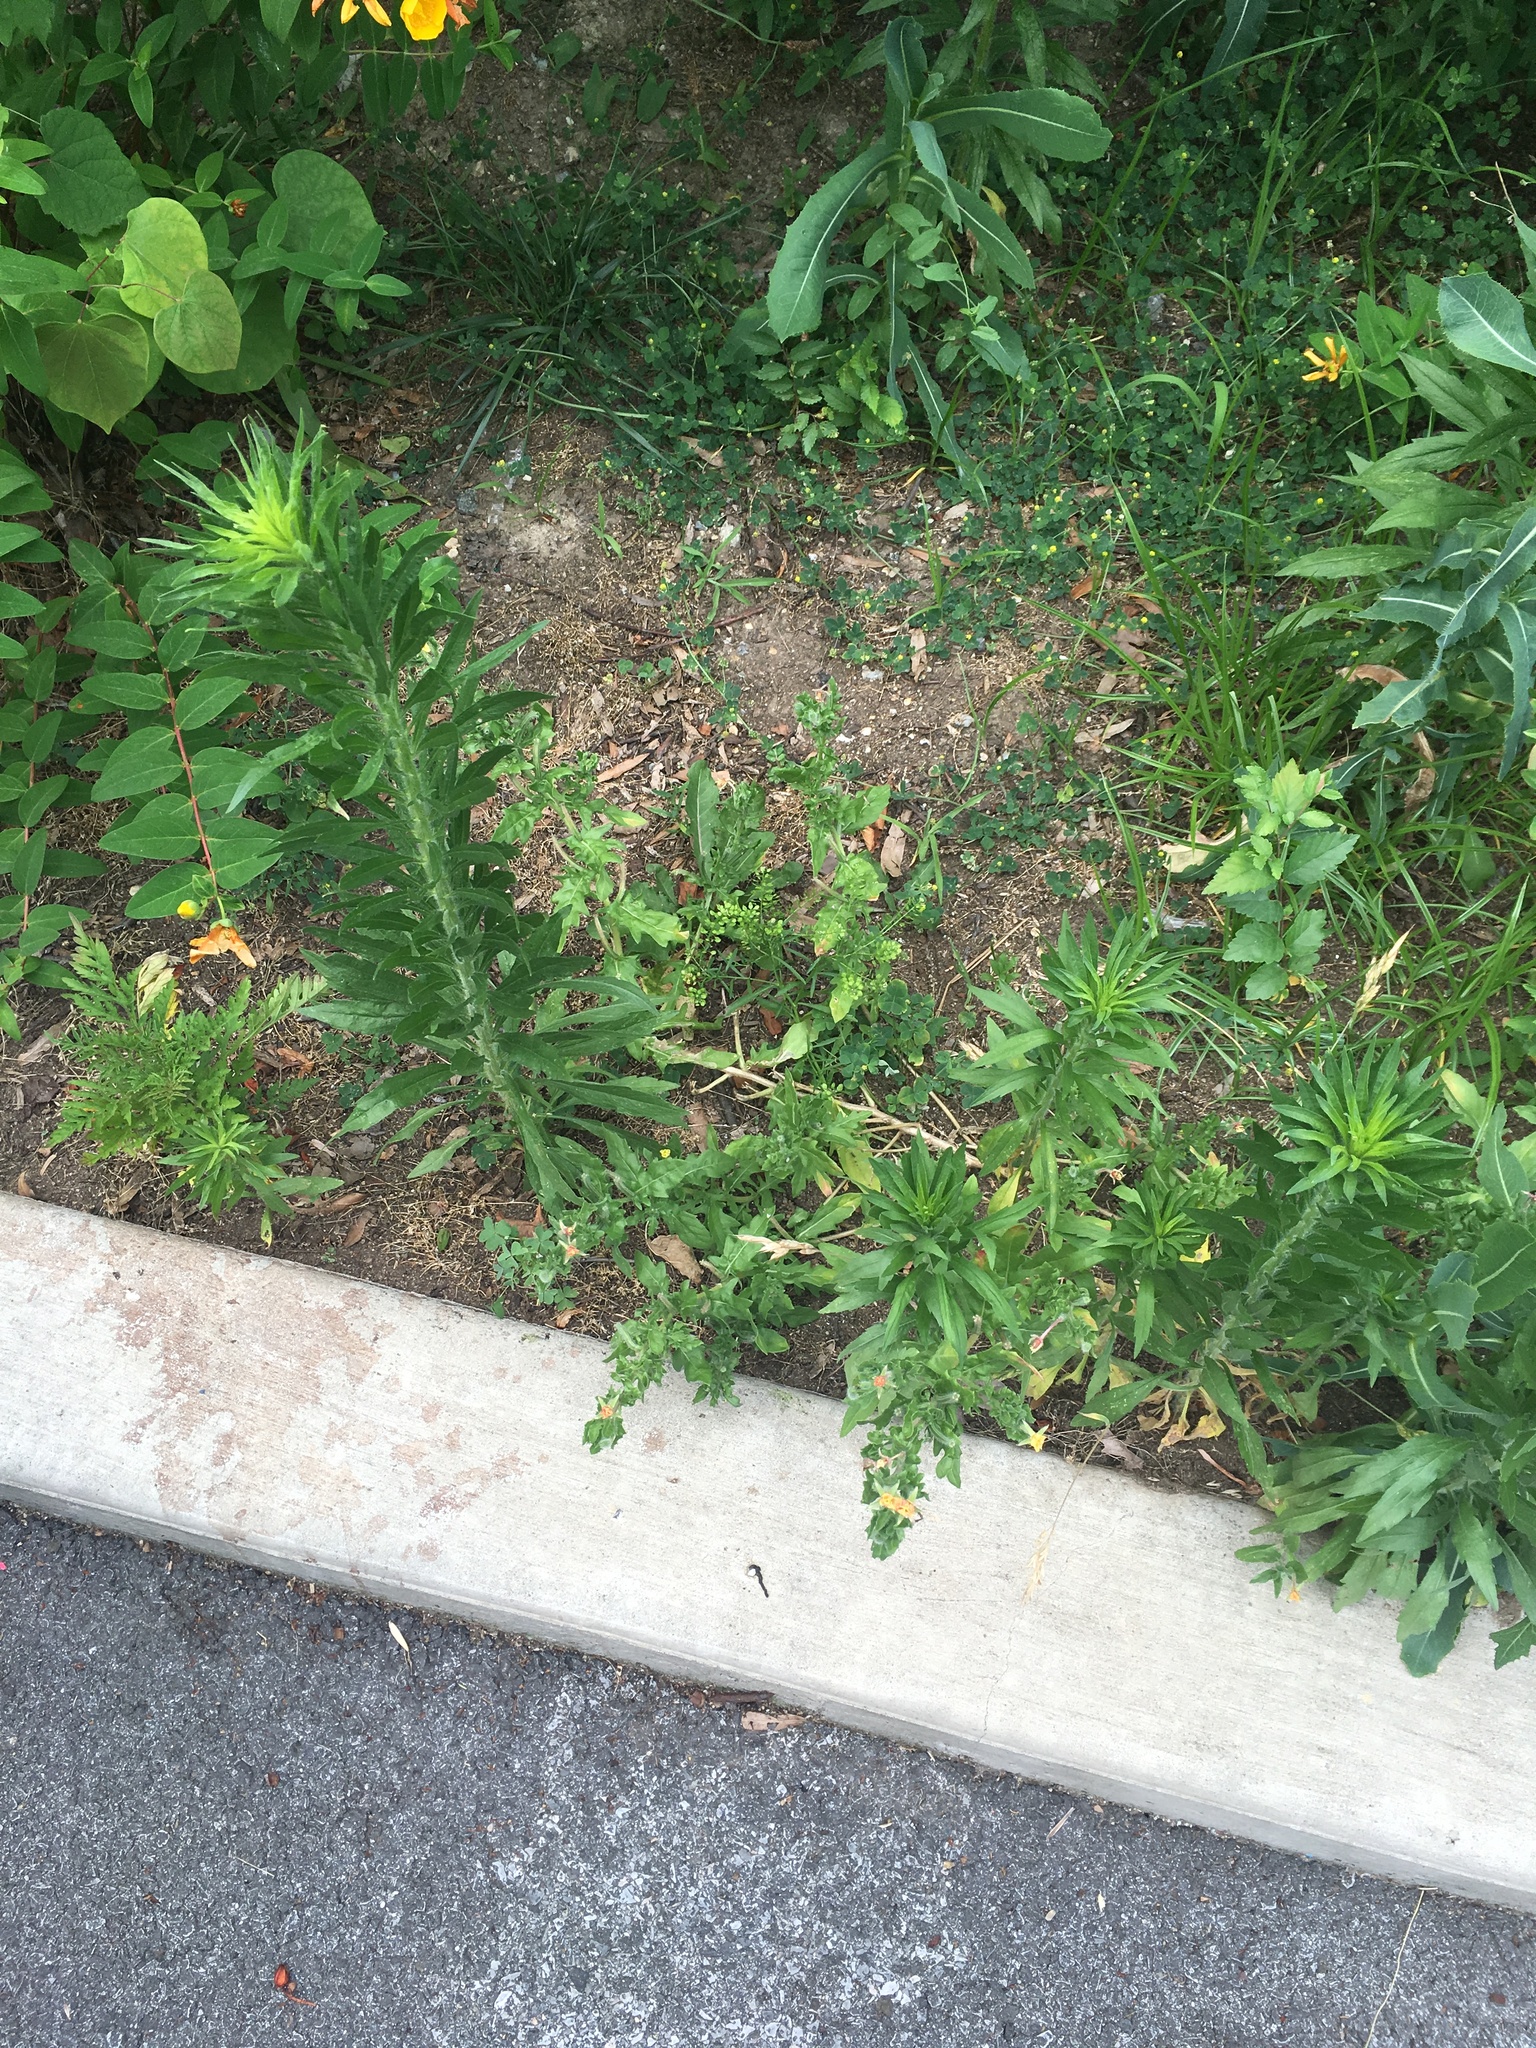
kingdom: Plantae
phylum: Tracheophyta
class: Magnoliopsida
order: Asterales
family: Asteraceae
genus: Erigeron
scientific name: Erigeron canadensis
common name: Canadian fleabane
